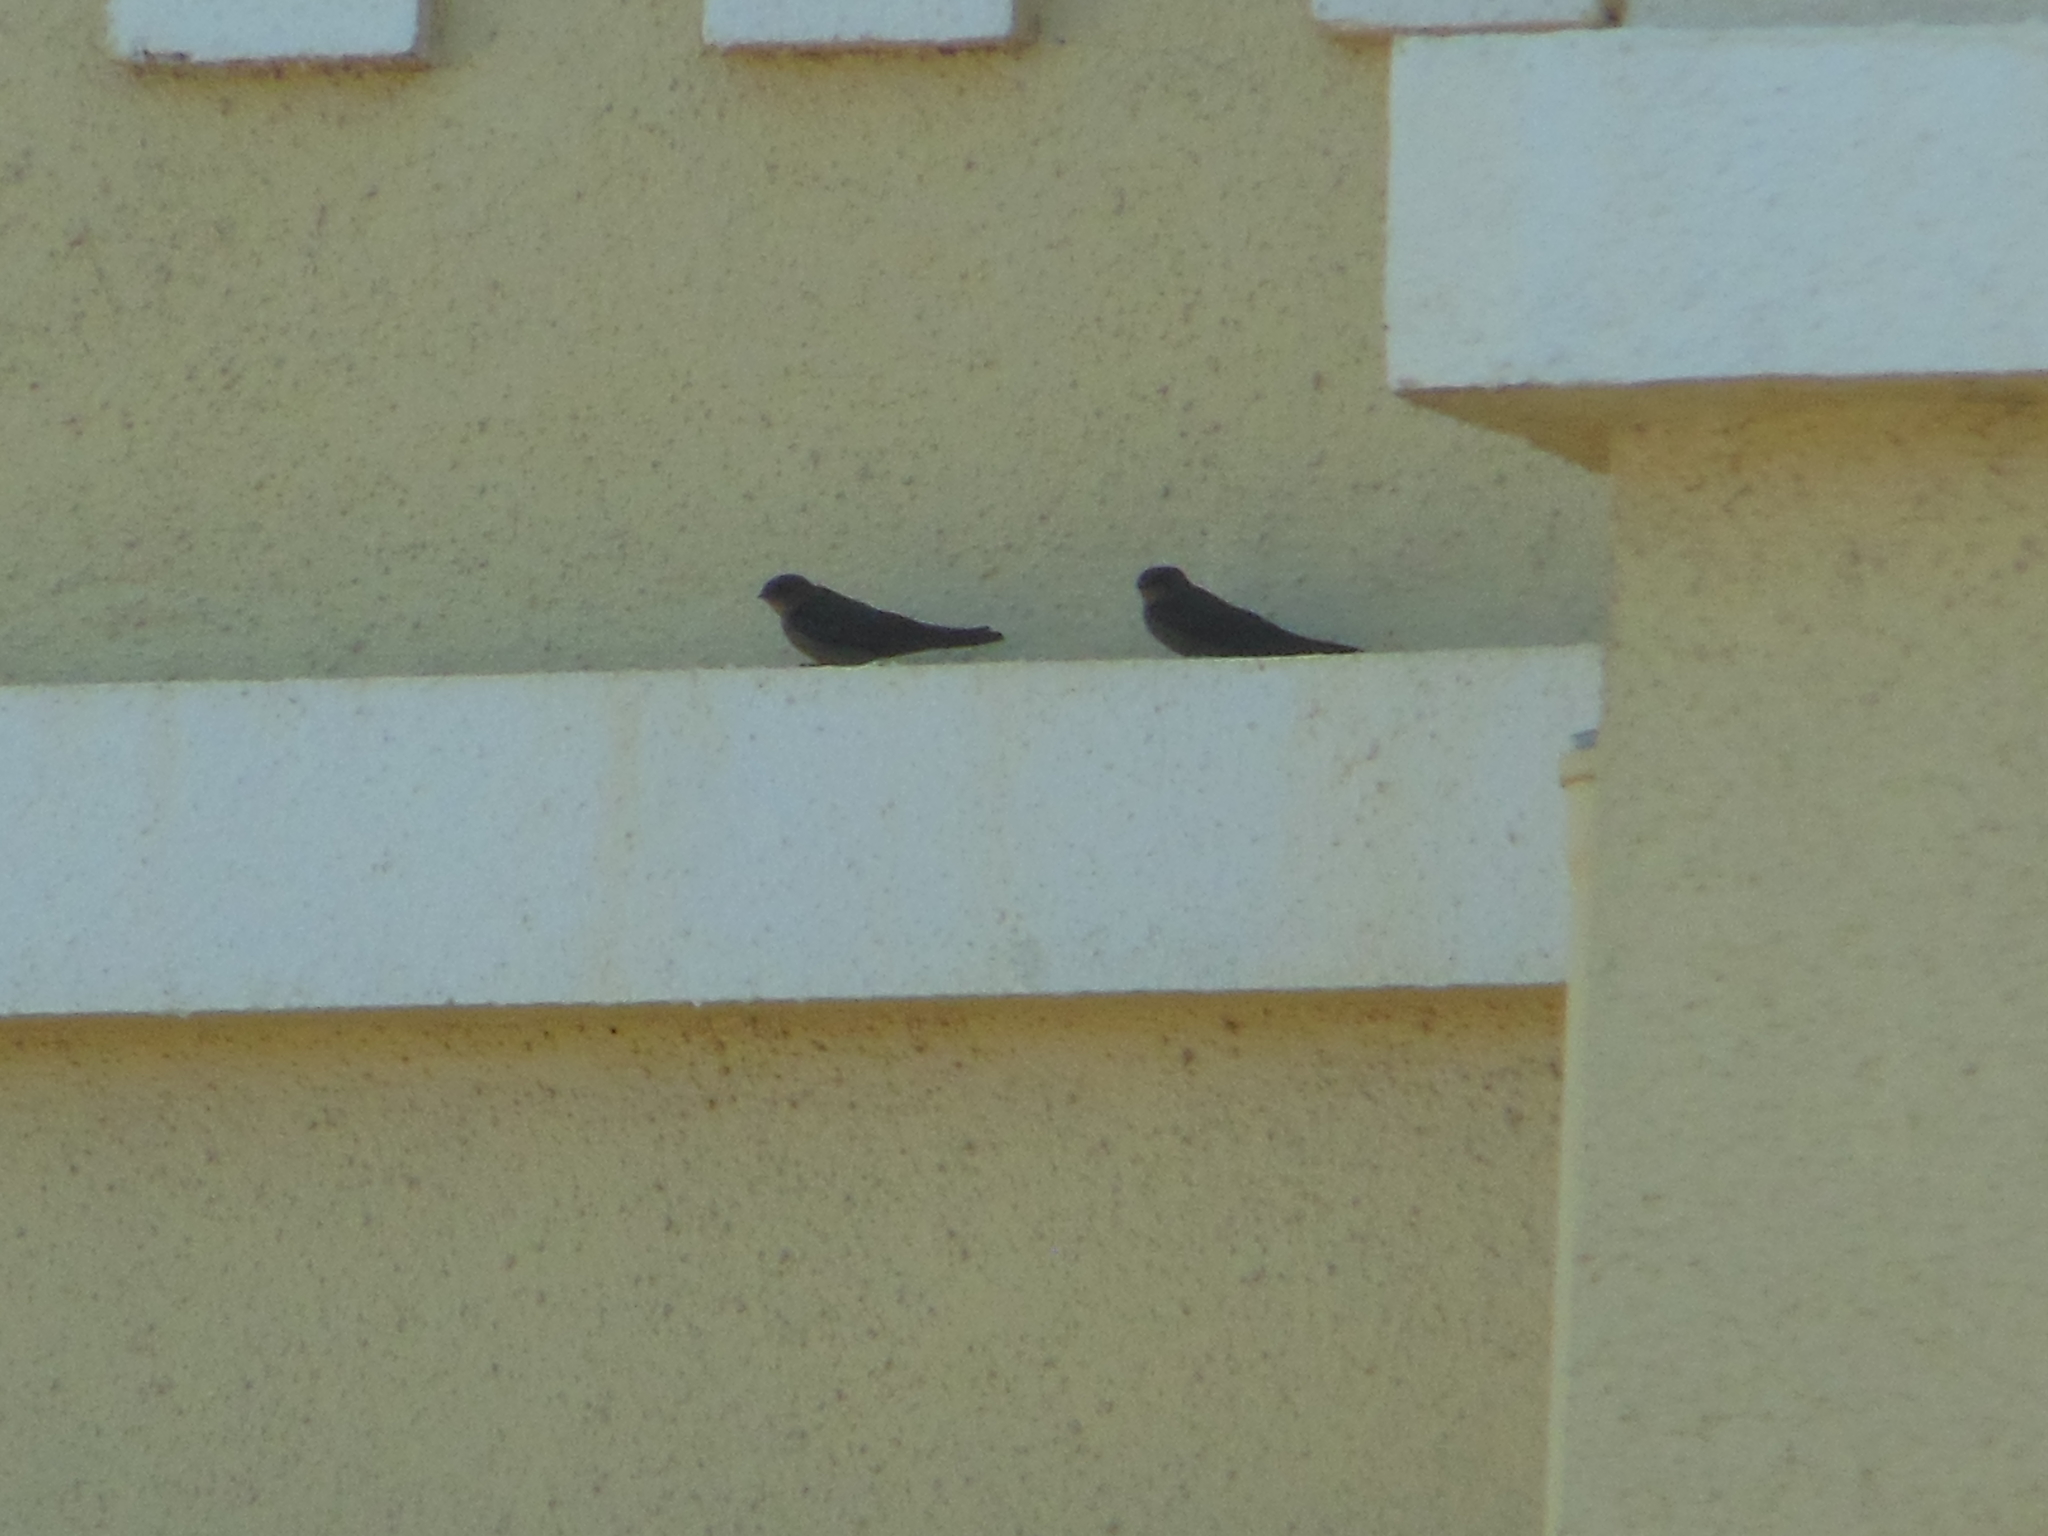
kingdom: Animalia
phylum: Chordata
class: Aves
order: Passeriformes
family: Hirundinidae
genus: Ptyonoprogne
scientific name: Ptyonoprogne concolor
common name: Dusky crag-martin
